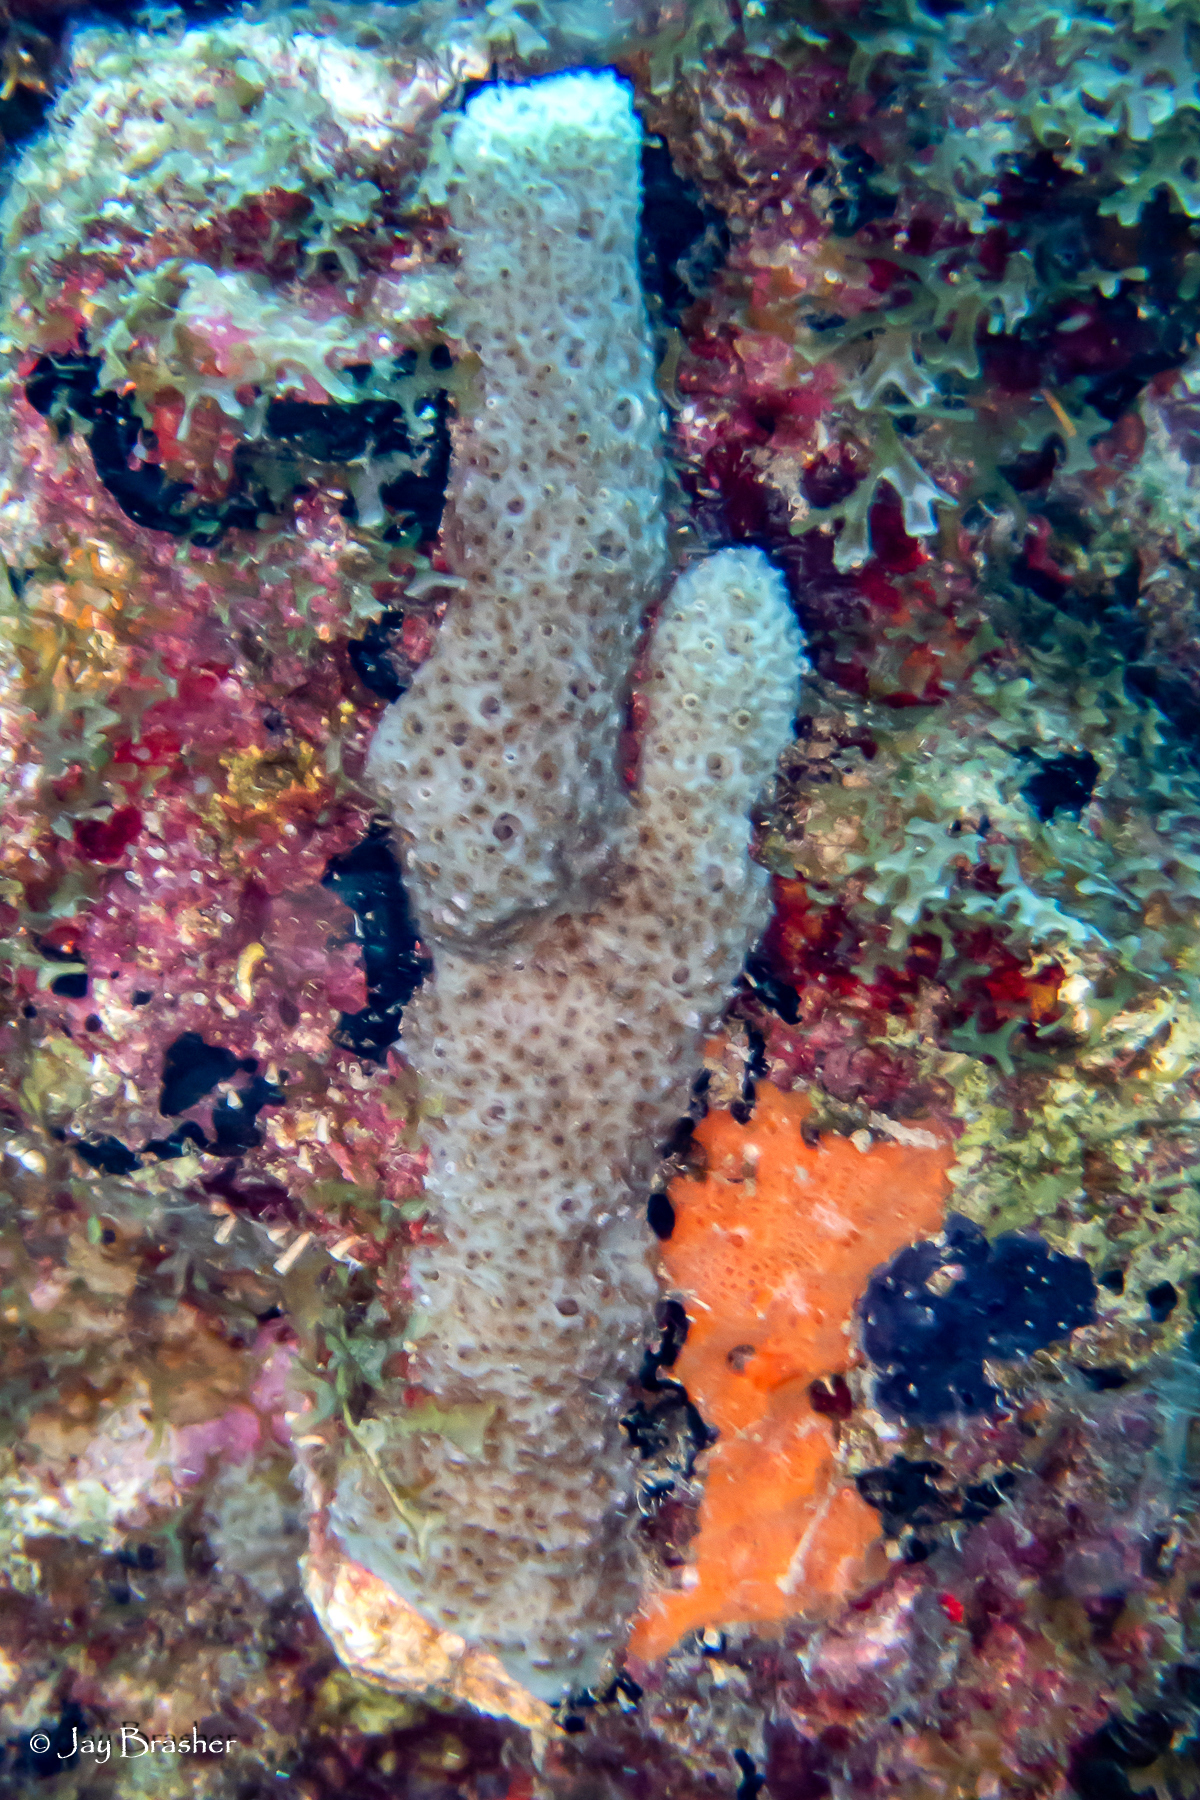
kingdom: Animalia
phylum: Porifera
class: Demospongiae
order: Haplosclerida
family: Niphatidae
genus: Niphates
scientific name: Niphates erecta
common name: Lavender rope sponge
